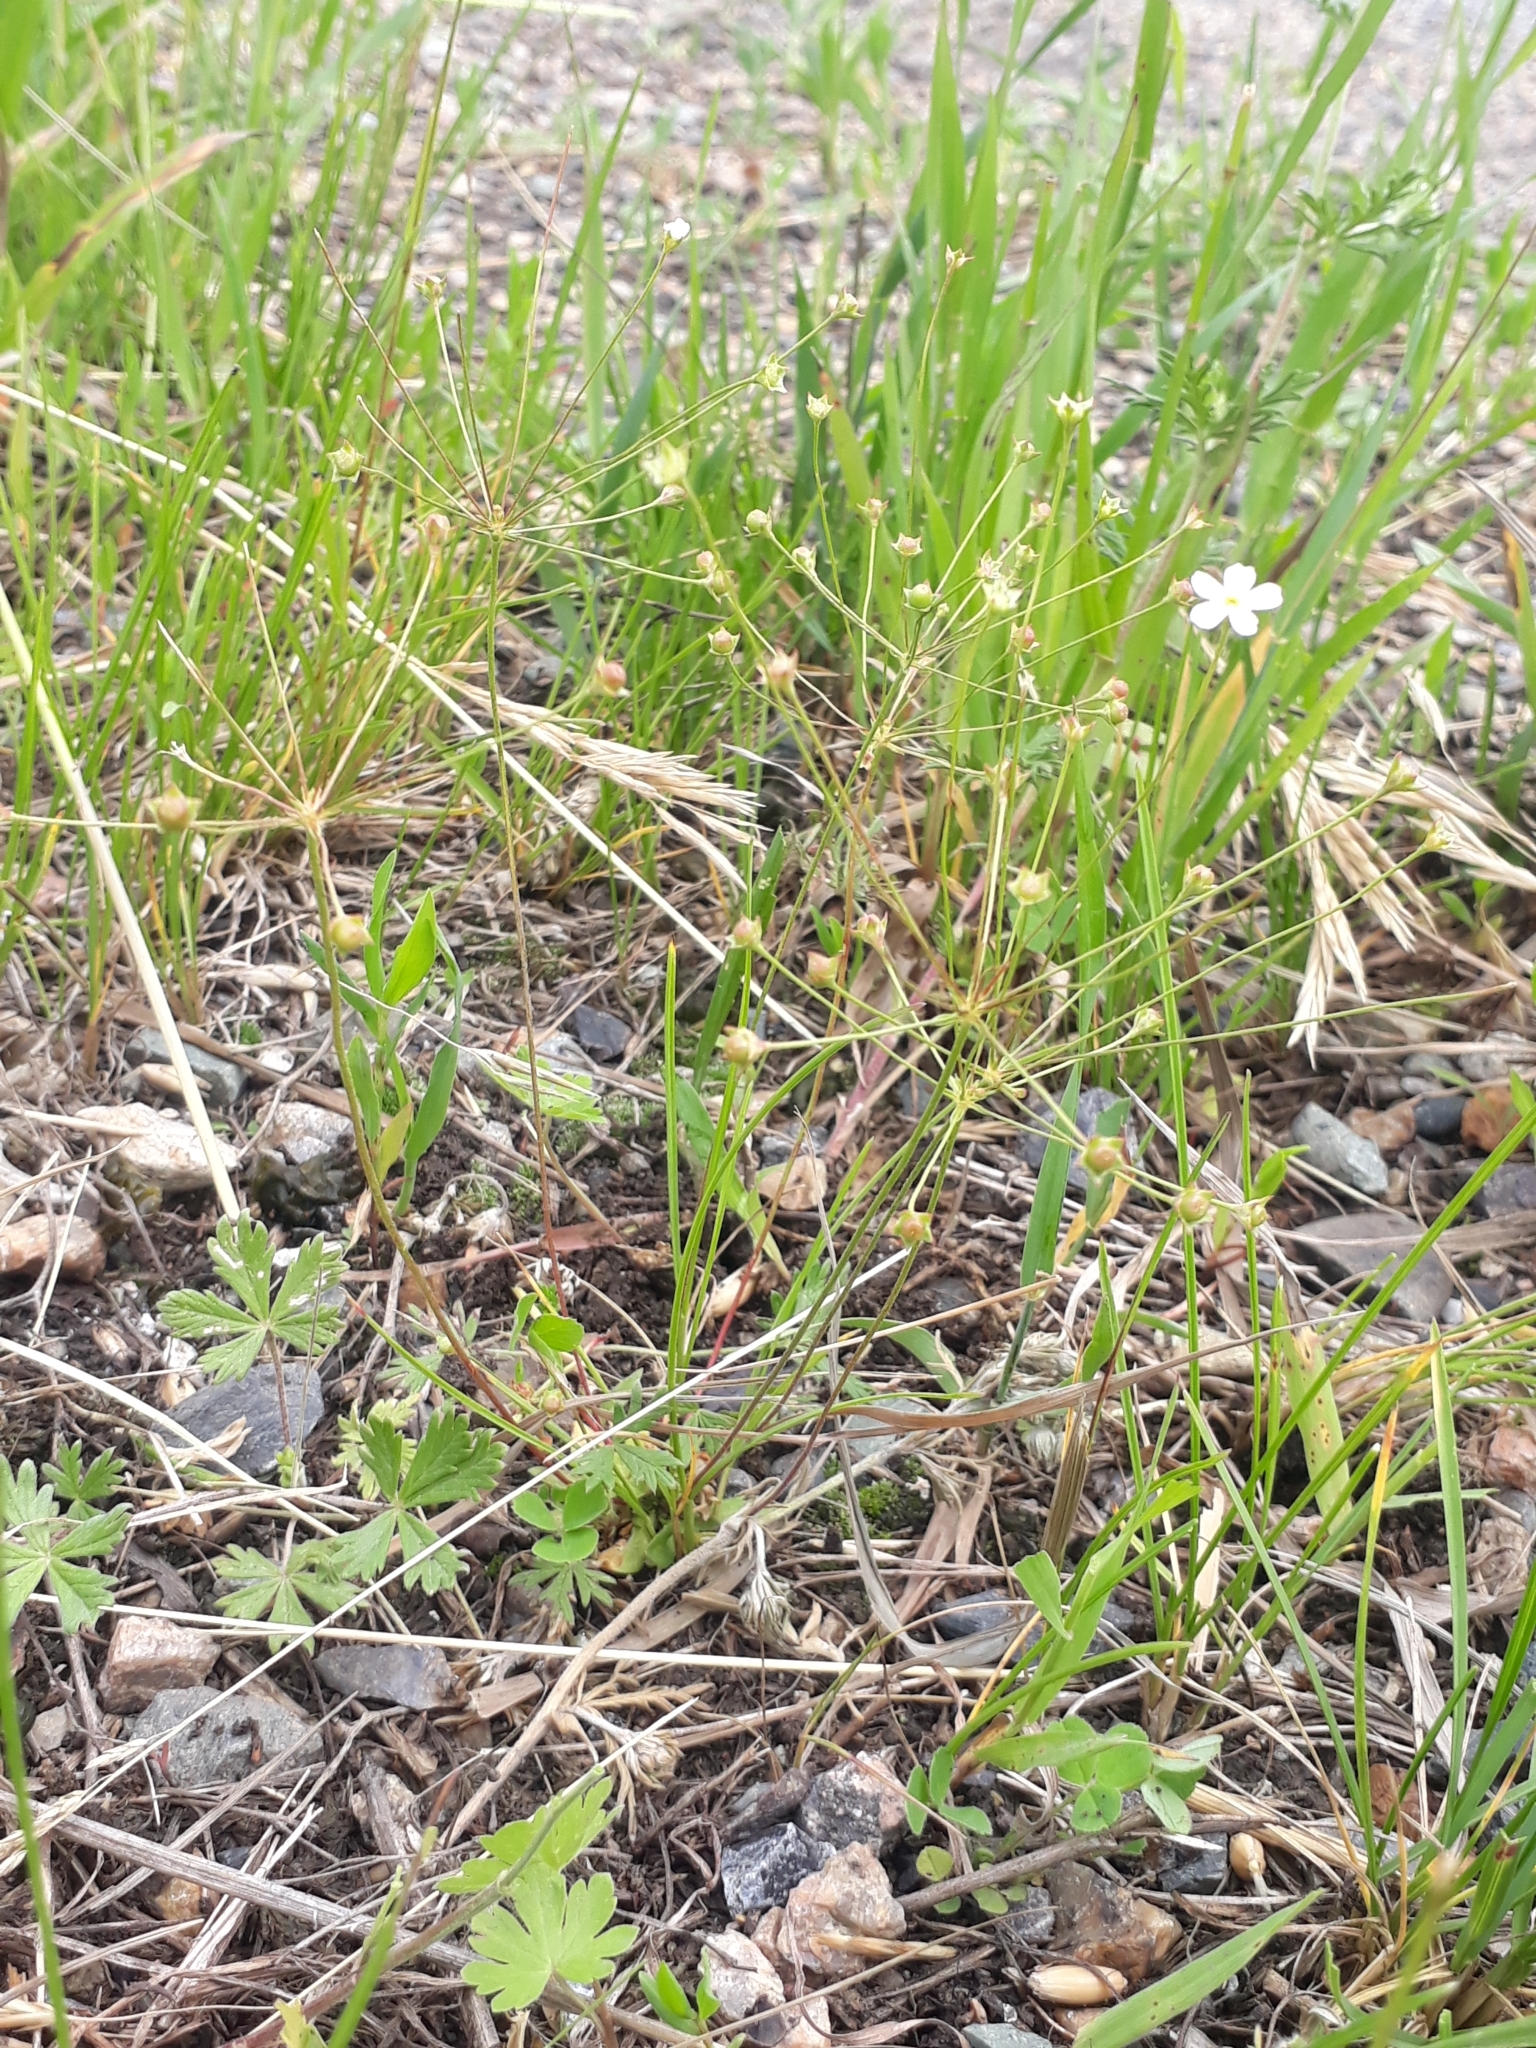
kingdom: Plantae
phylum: Tracheophyta
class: Magnoliopsida
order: Ericales
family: Primulaceae
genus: Androsace
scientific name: Androsace septentrionalis
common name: Hairy northern fairy-candelabra
